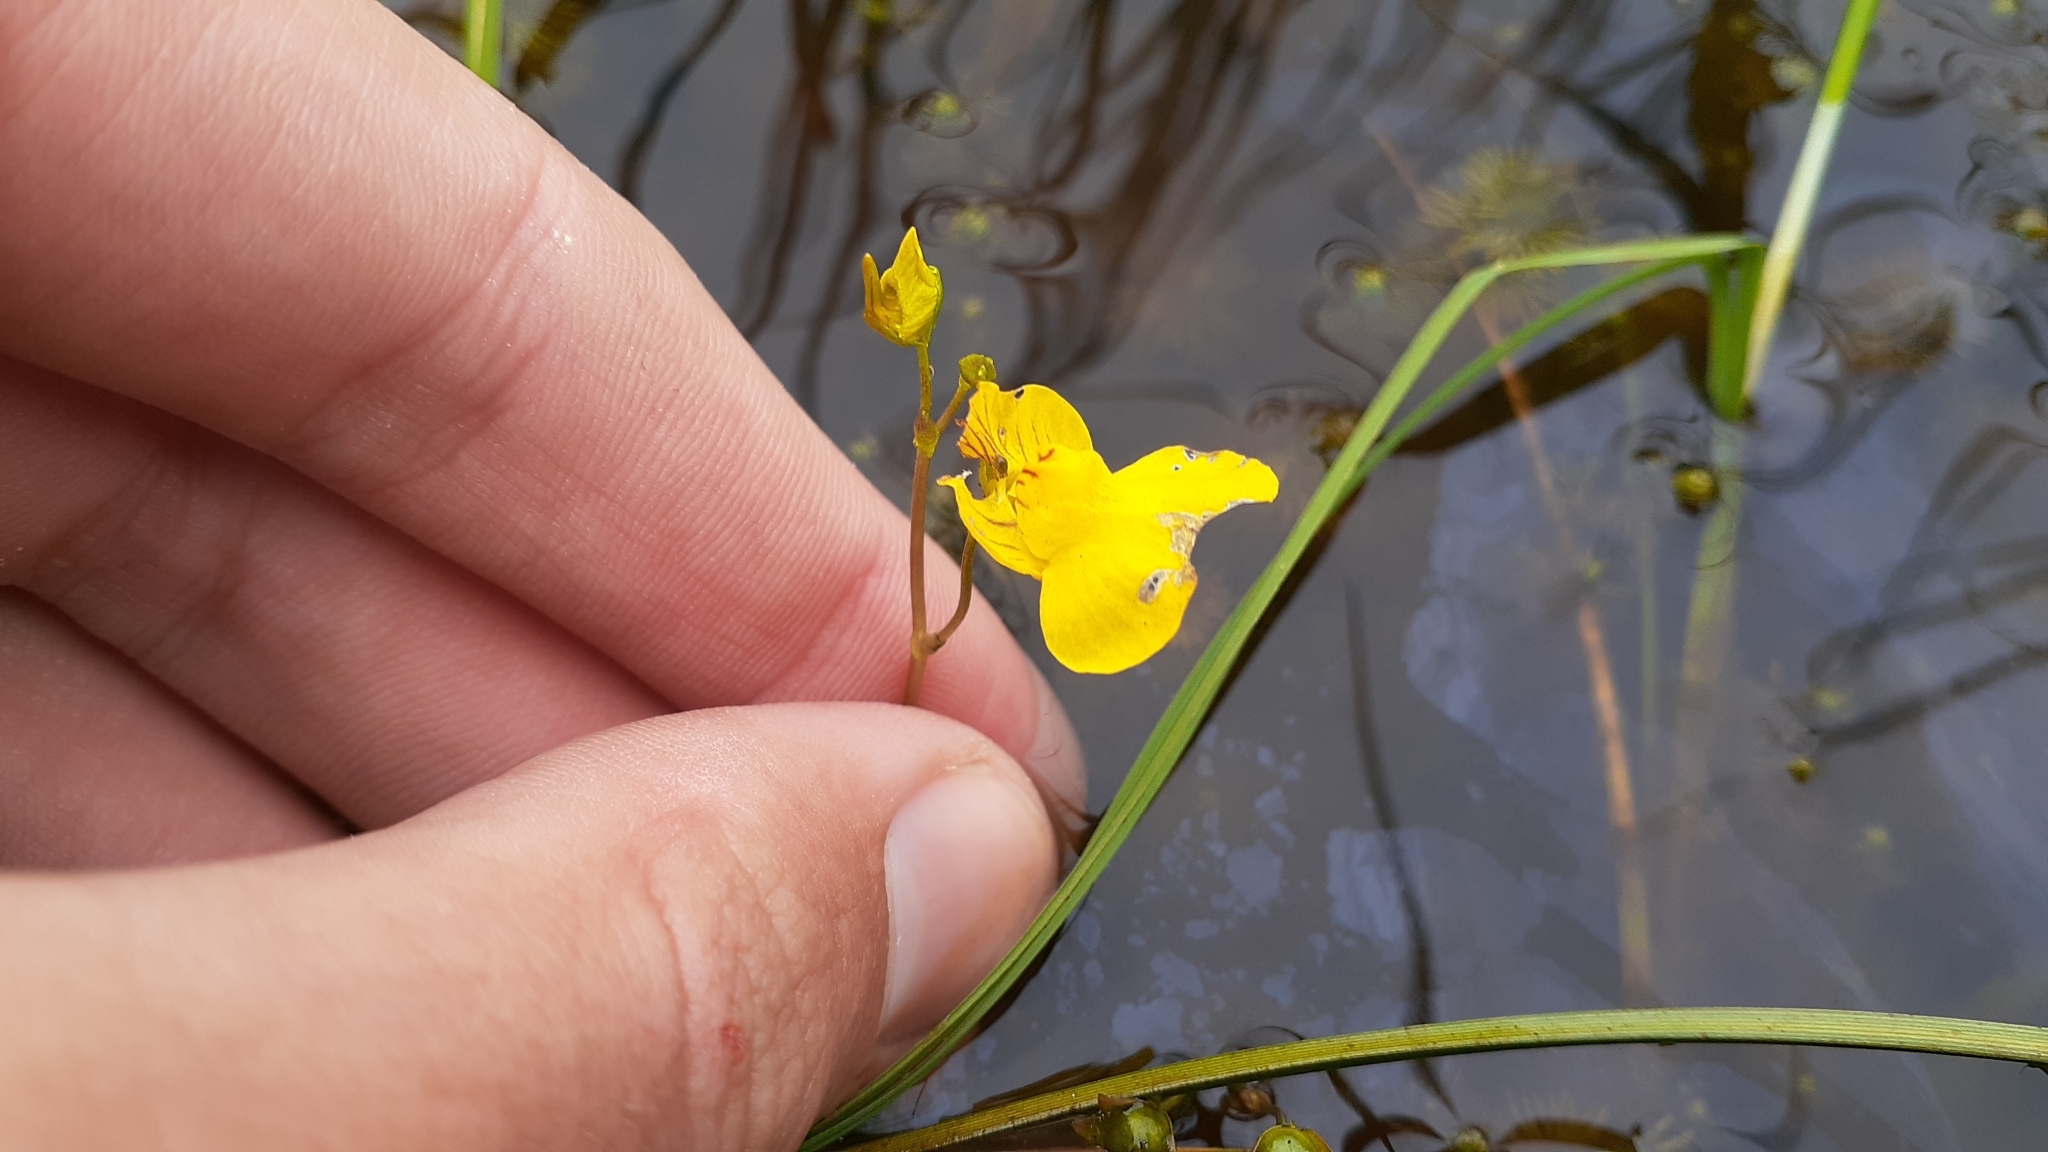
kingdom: Plantae
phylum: Tracheophyta
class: Magnoliopsida
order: Lamiales
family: Lentibulariaceae
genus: Utricularia
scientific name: Utricularia intermedia
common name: Intermediate bladderwort
